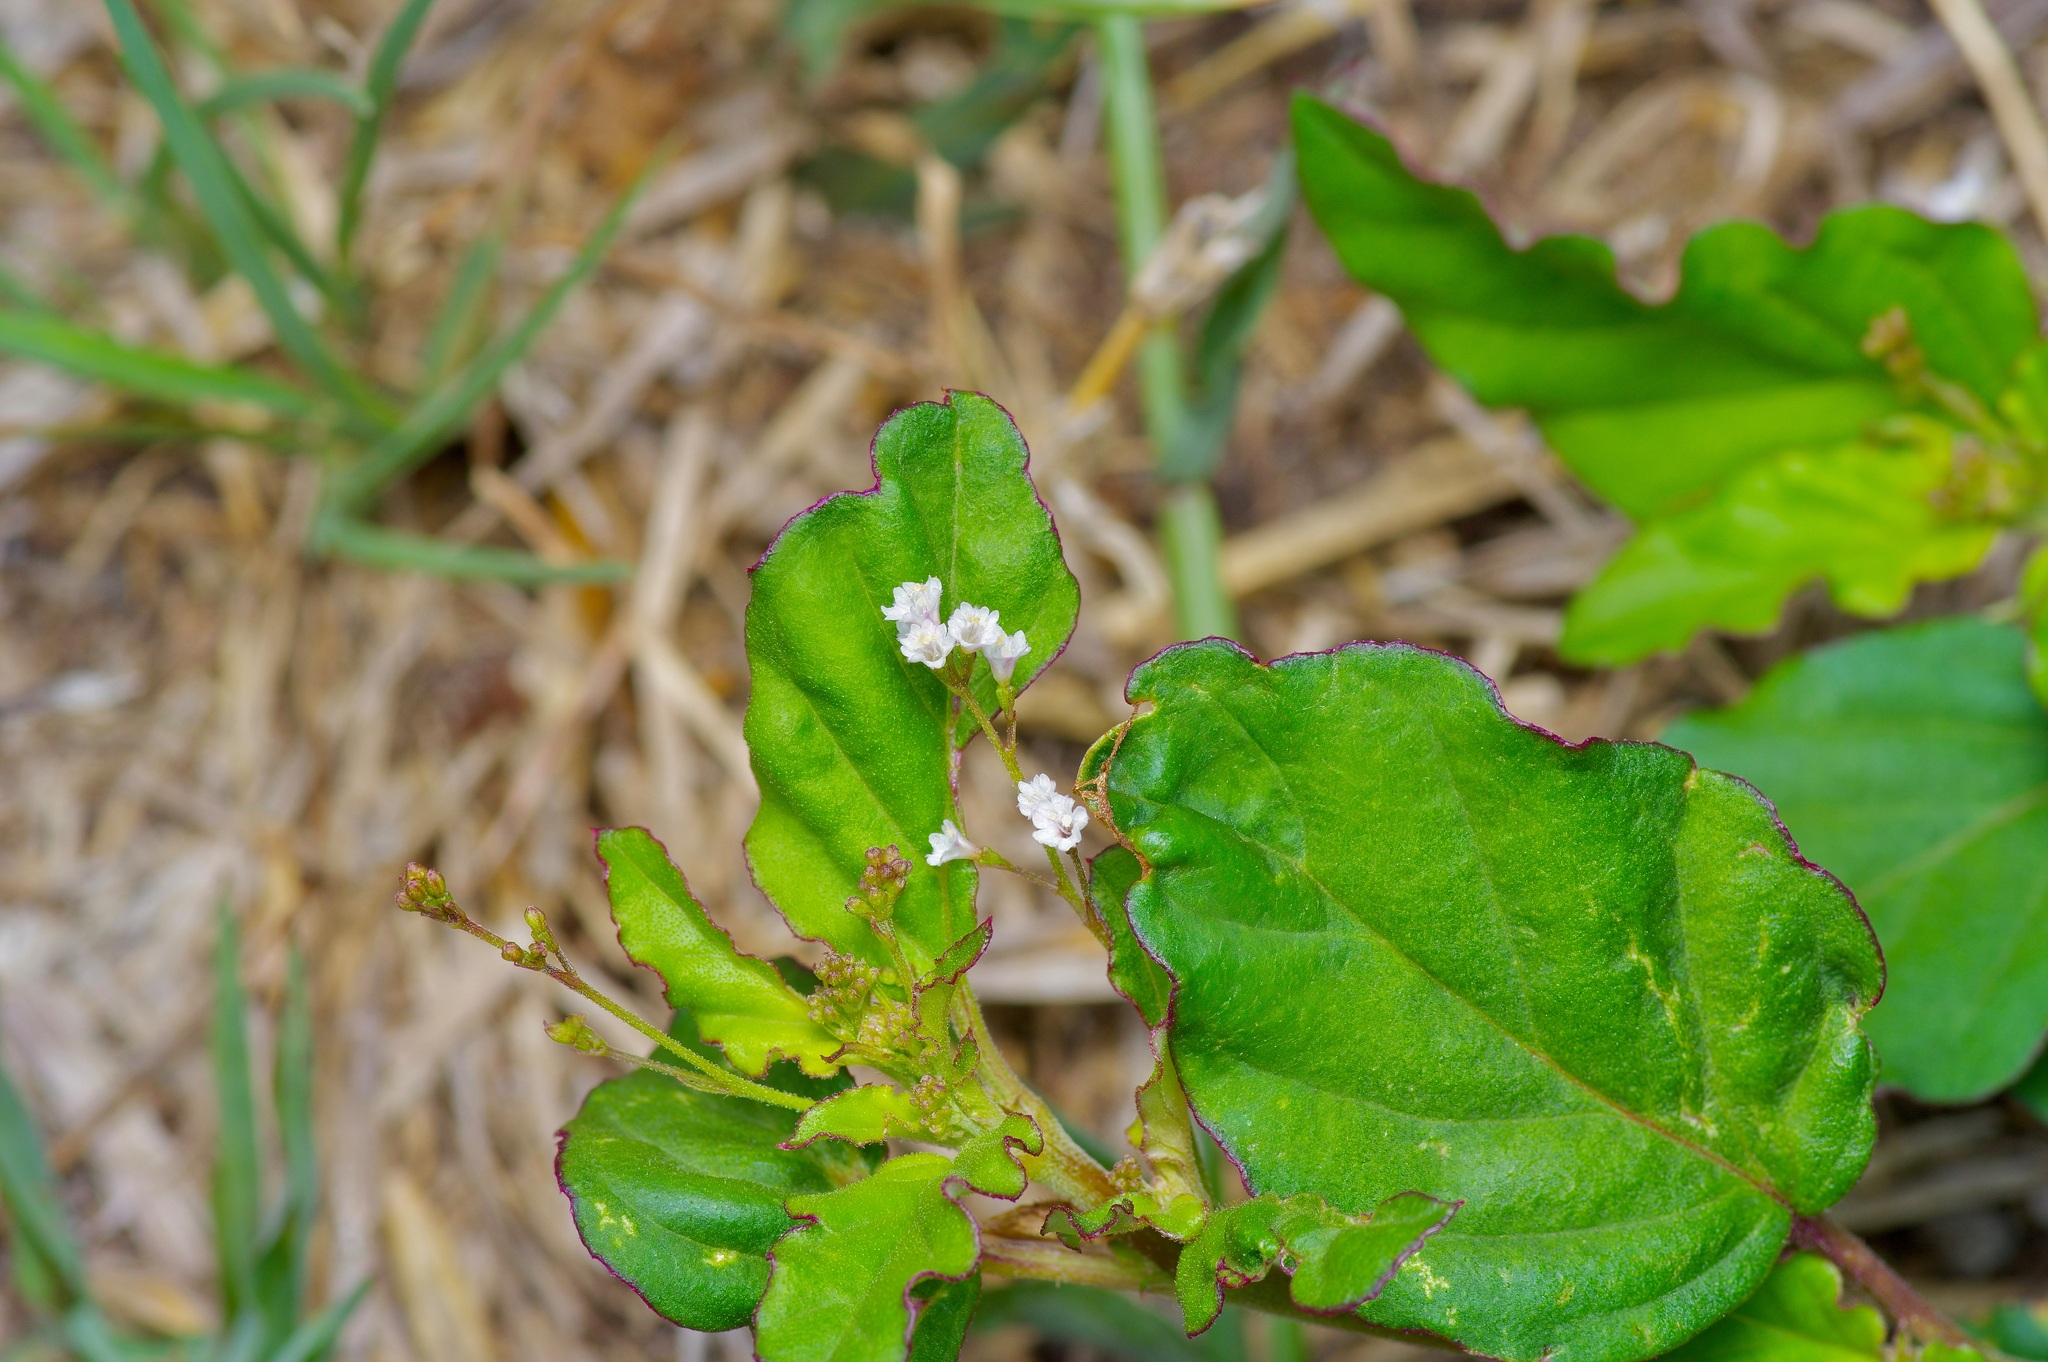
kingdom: Plantae
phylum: Tracheophyta
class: Magnoliopsida
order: Caryophyllales
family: Nyctaginaceae
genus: Boerhavia
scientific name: Boerhavia erecta
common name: Erect spiderling
